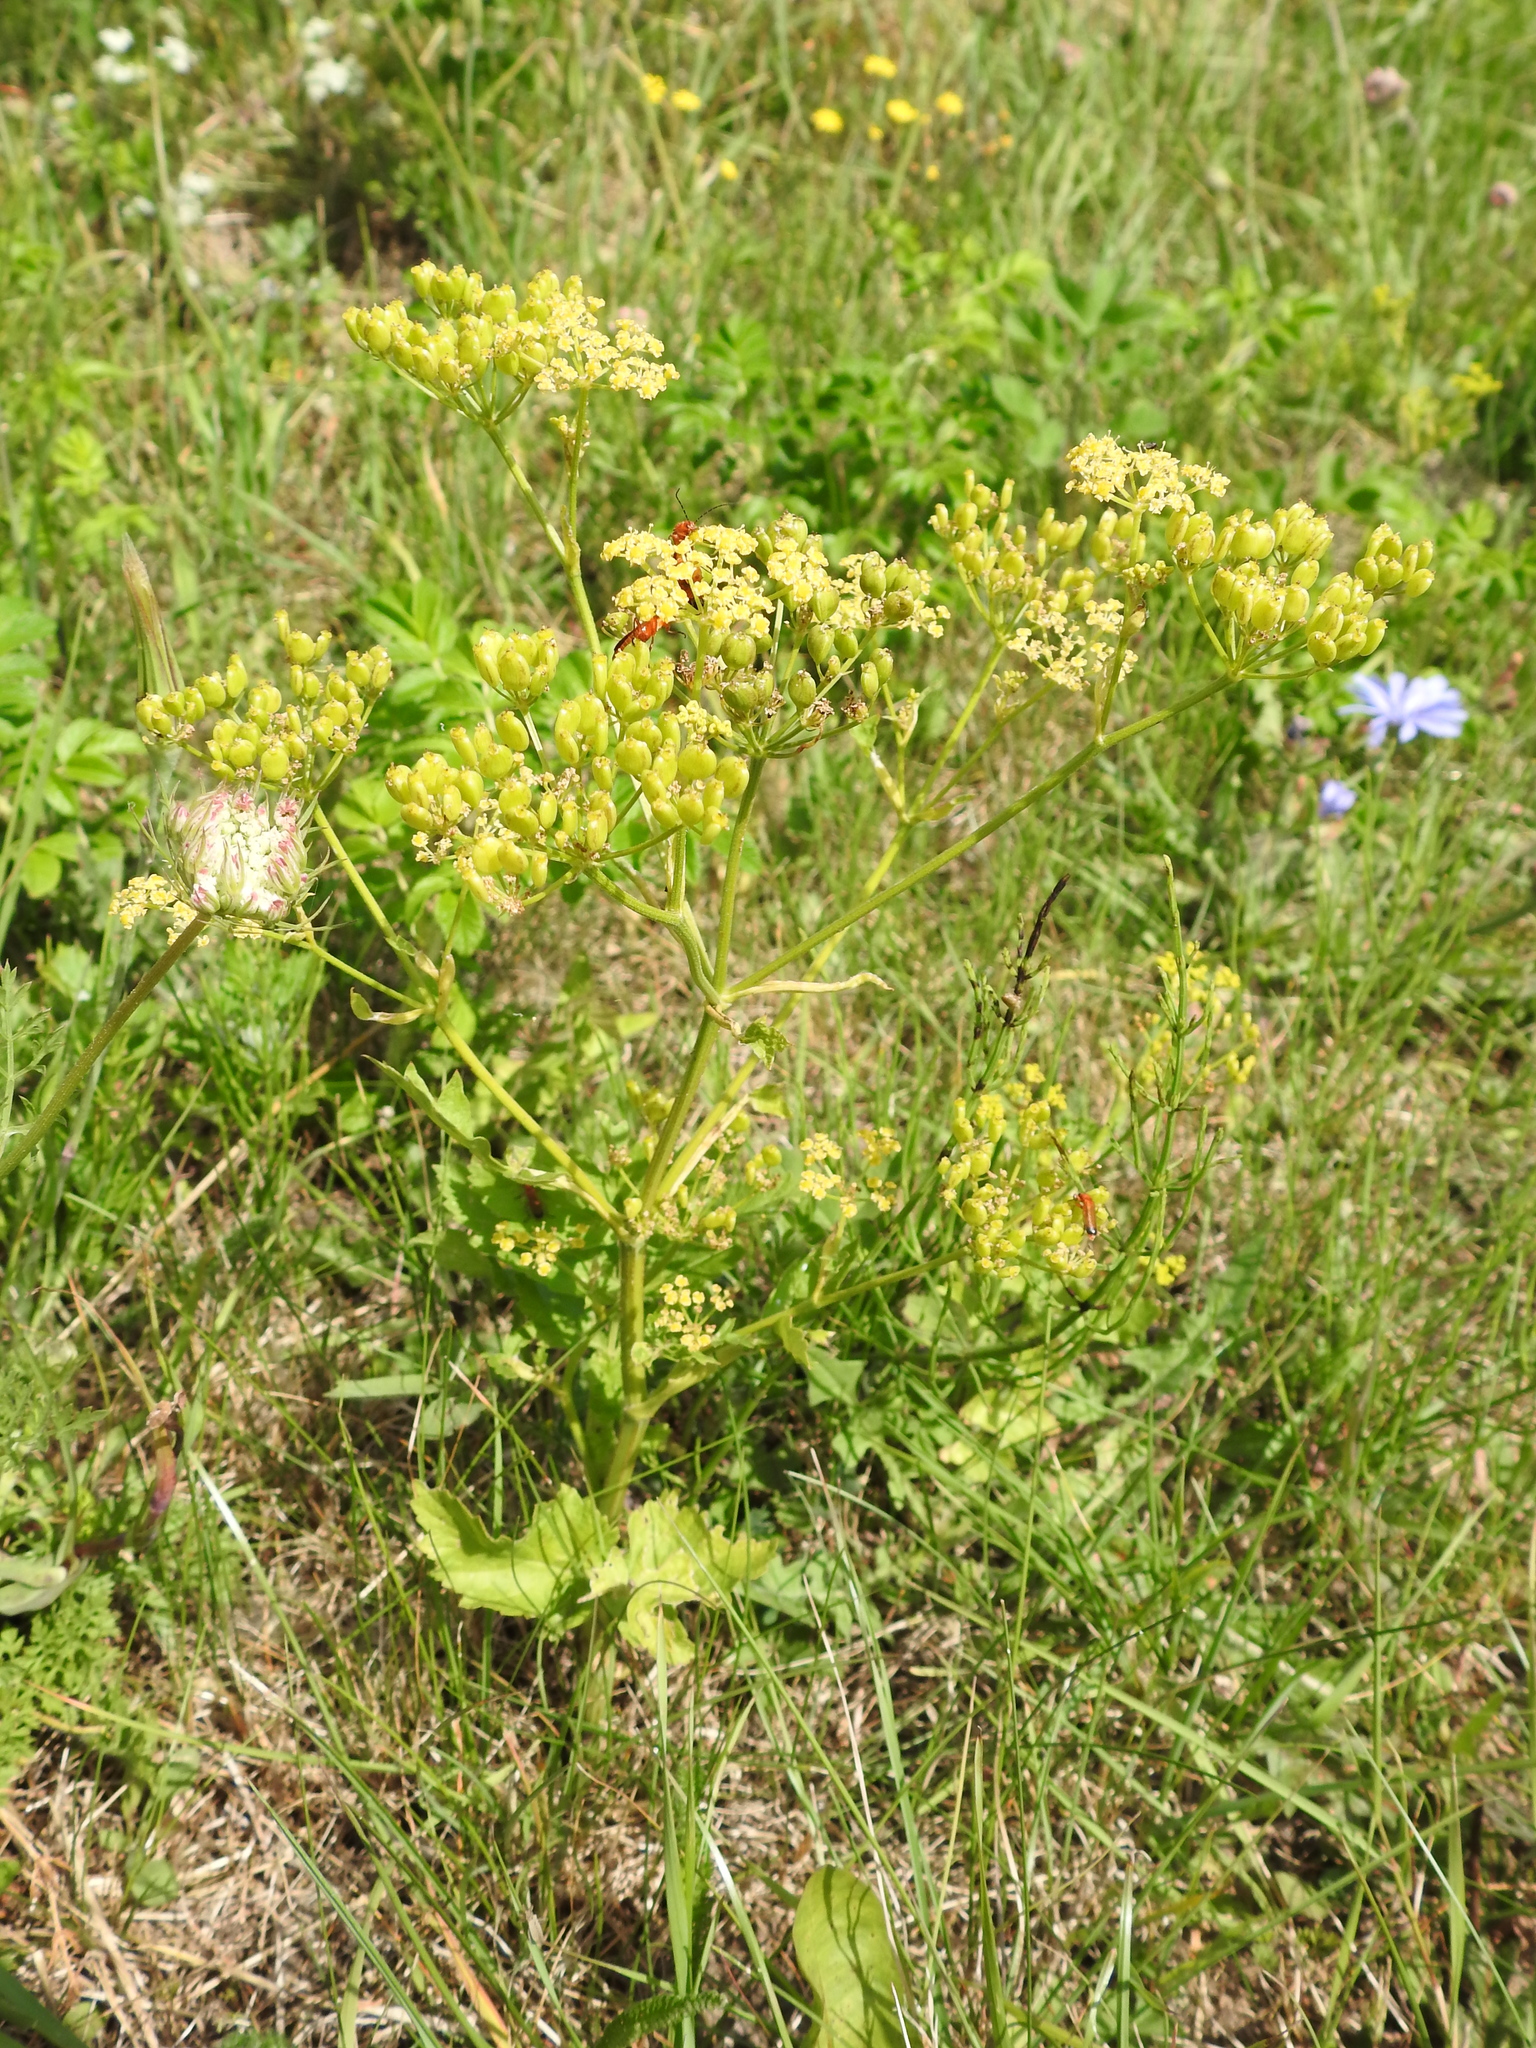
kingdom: Plantae
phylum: Tracheophyta
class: Magnoliopsida
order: Apiales
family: Apiaceae
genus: Pastinaca
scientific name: Pastinaca sativa
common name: Wild parsnip
